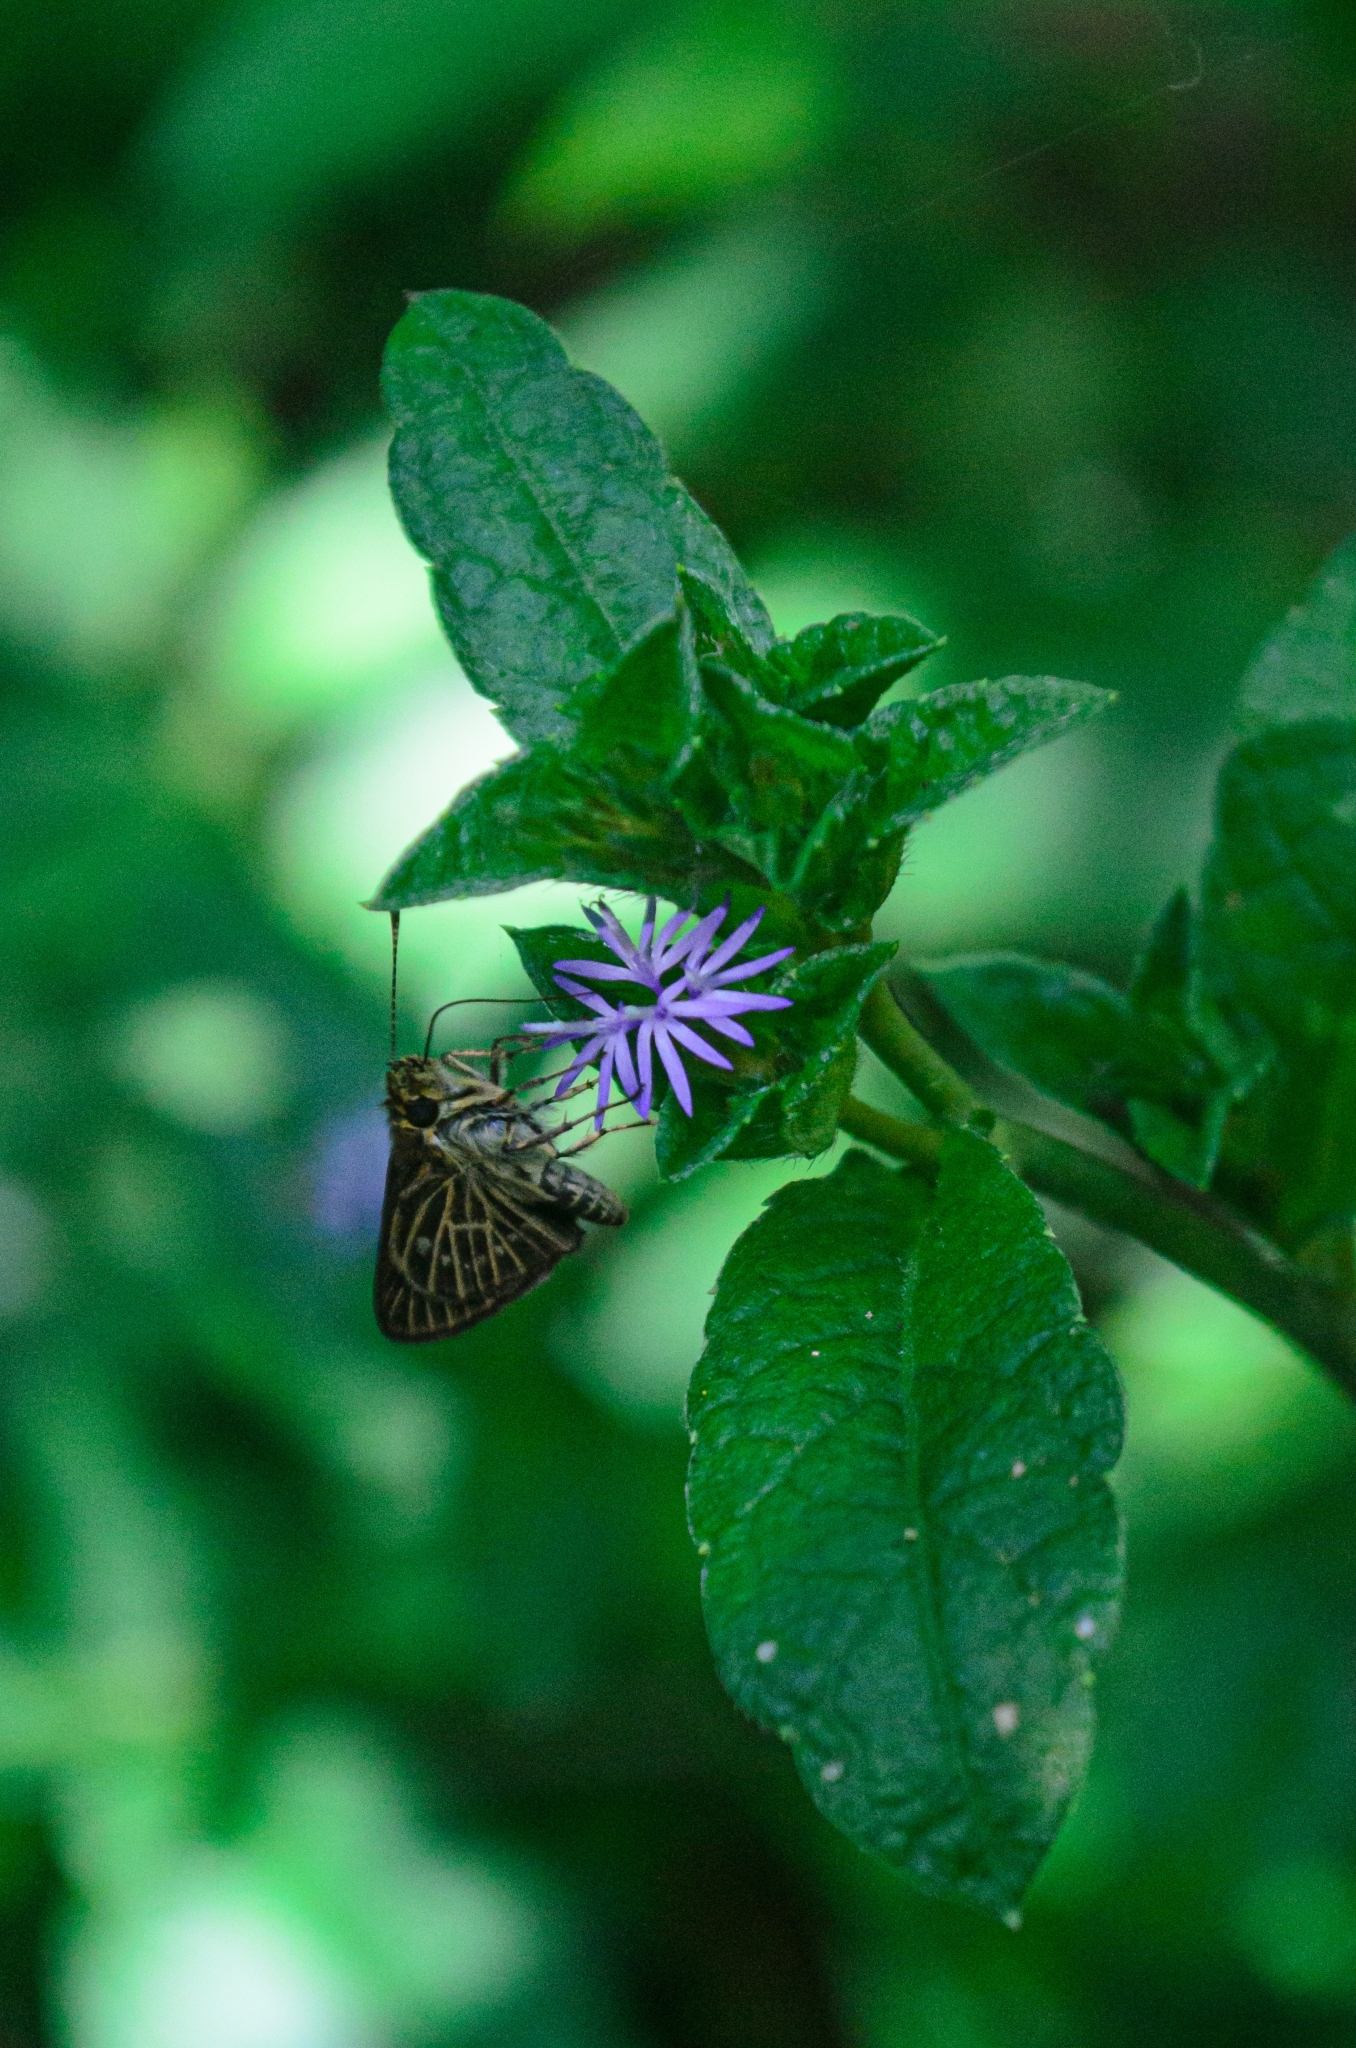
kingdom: Animalia
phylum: Arthropoda
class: Insecta
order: Lepidoptera
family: Hesperiidae
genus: Callimormus
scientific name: Callimormus interpunctata
